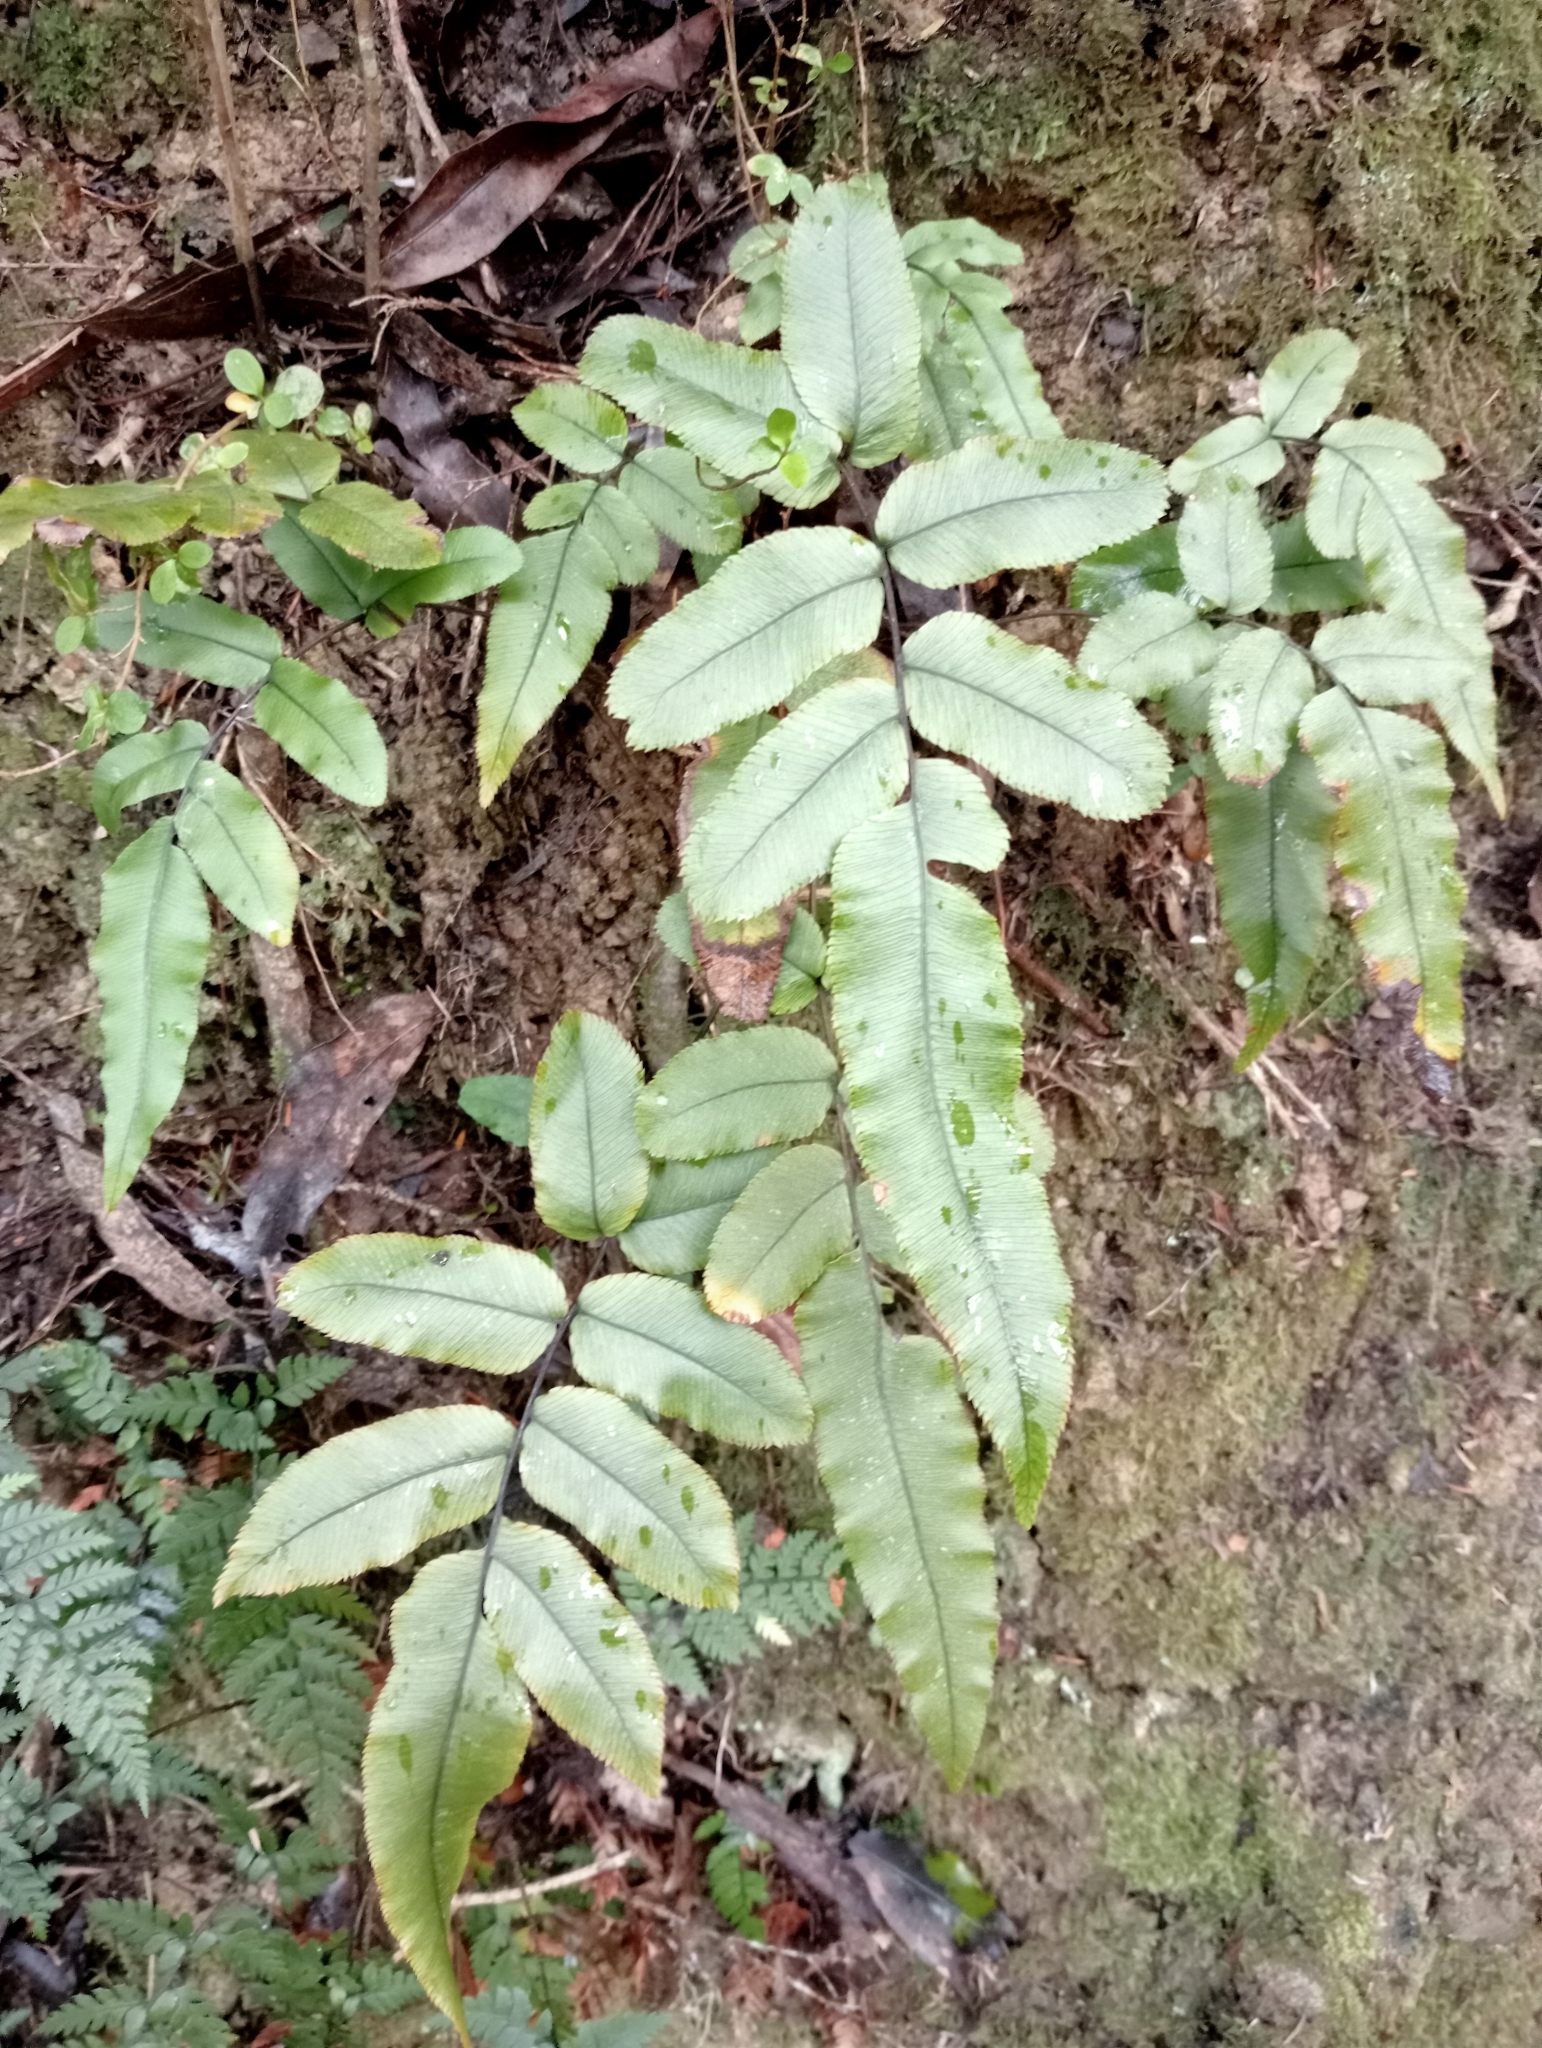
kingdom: Plantae
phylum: Tracheophyta
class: Polypodiopsida
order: Polypodiales
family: Blechnaceae
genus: Parablechnum
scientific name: Parablechnum procerum
